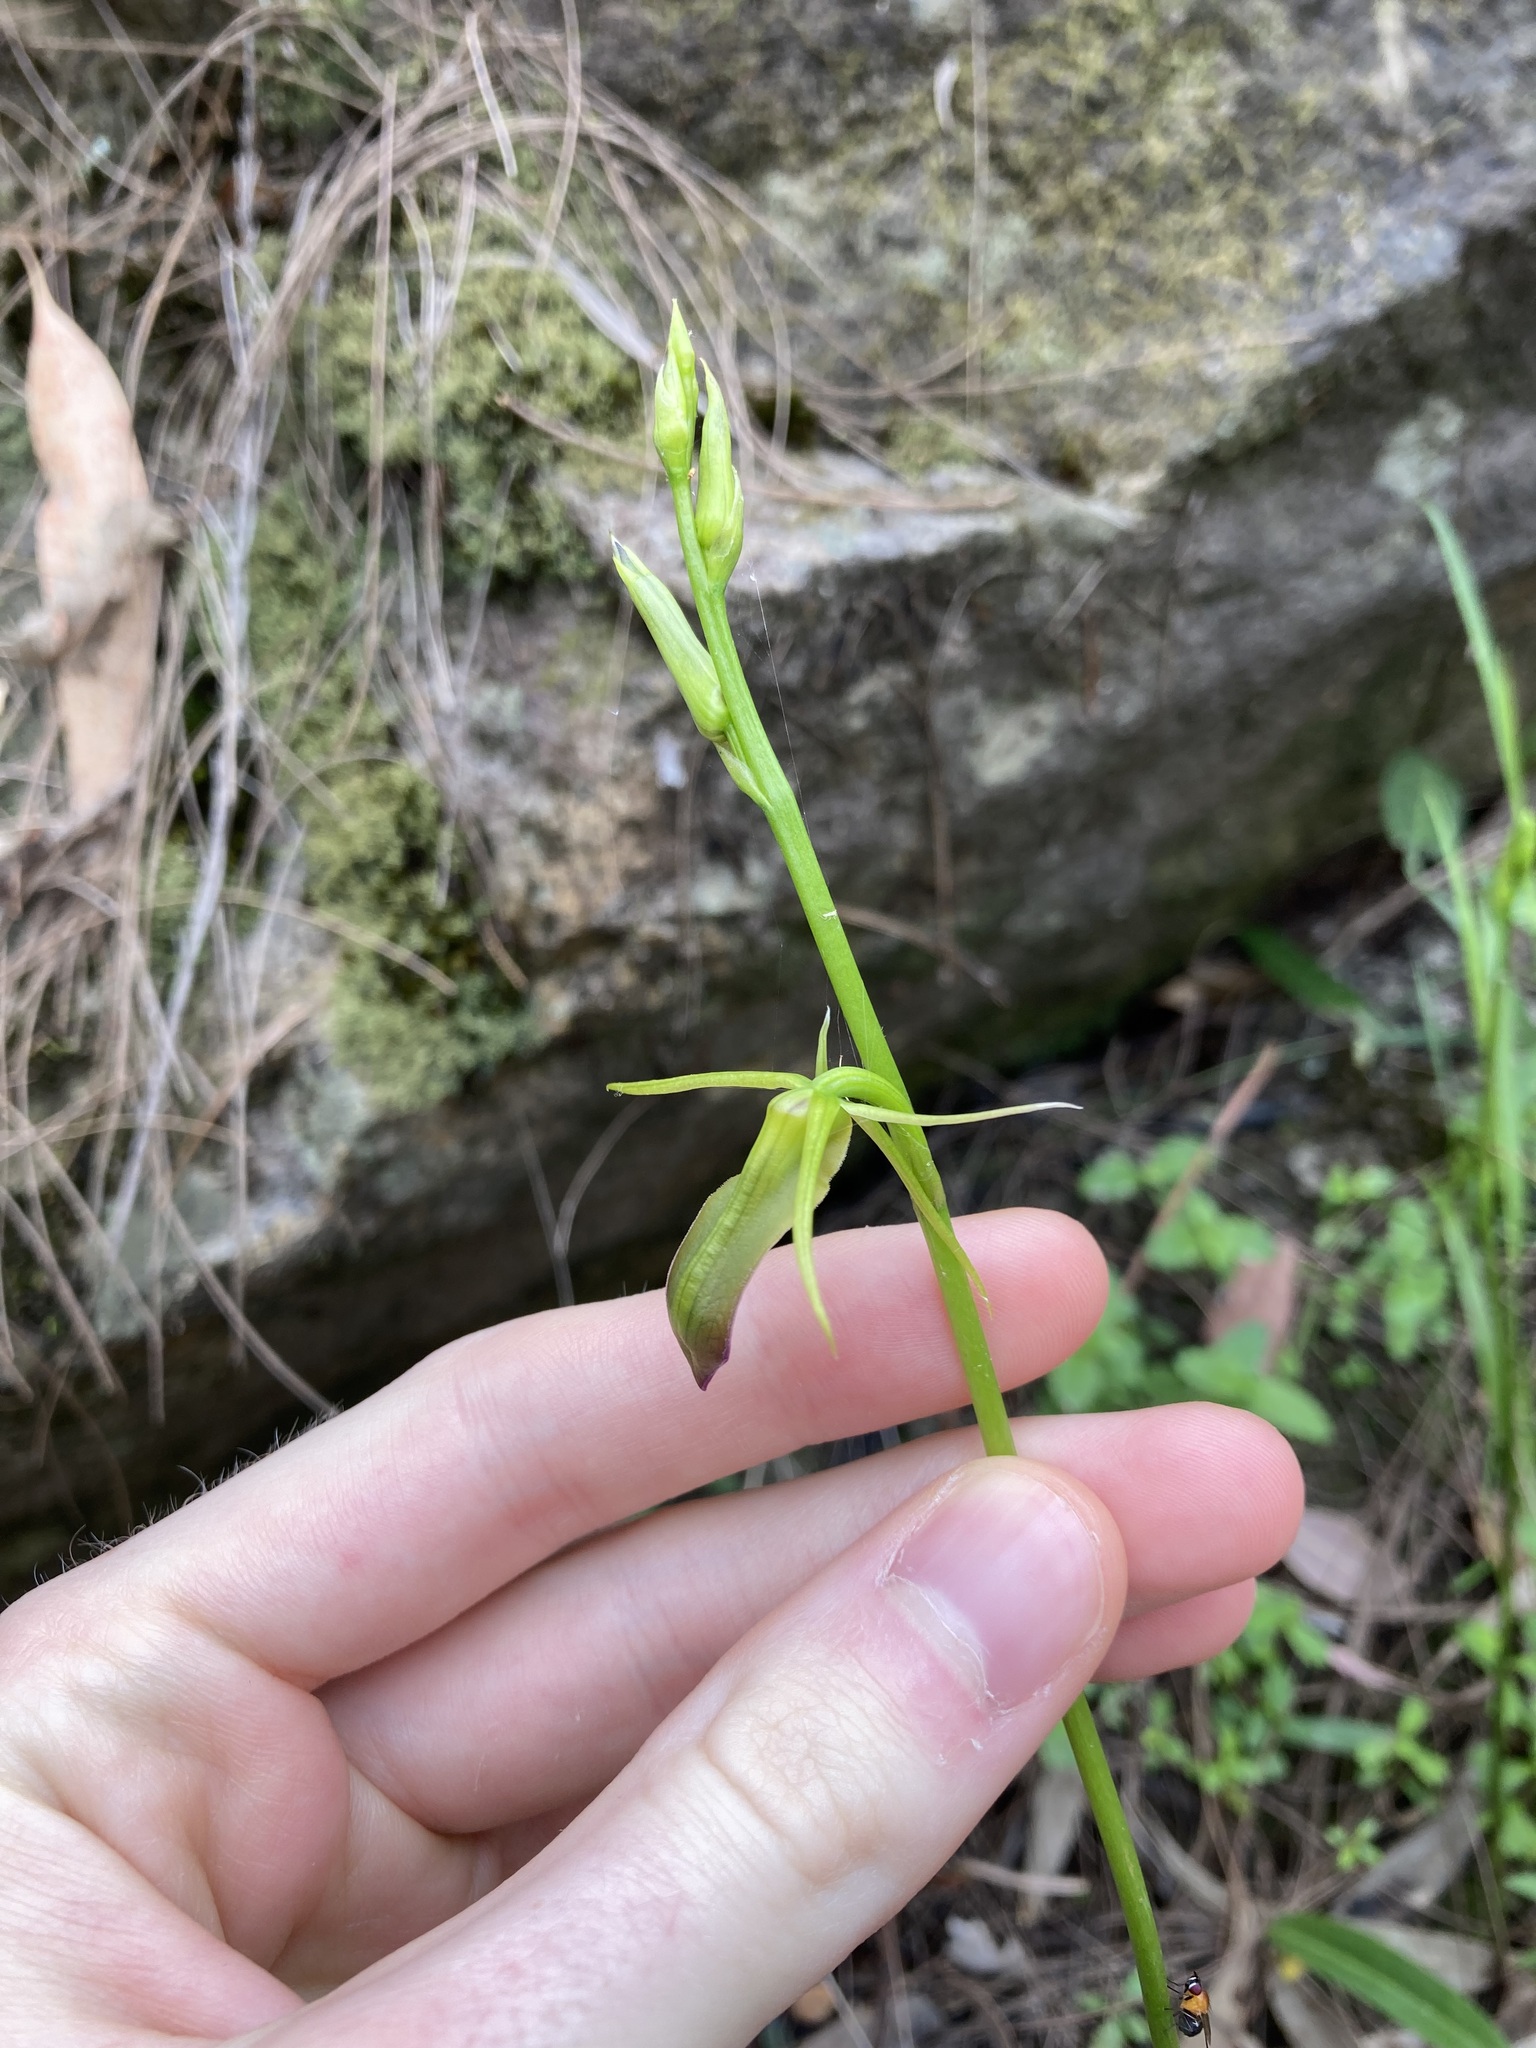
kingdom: Plantae
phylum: Tracheophyta
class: Liliopsida
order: Asparagales
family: Orchidaceae
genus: Cryptostylis
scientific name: Cryptostylis subulata
